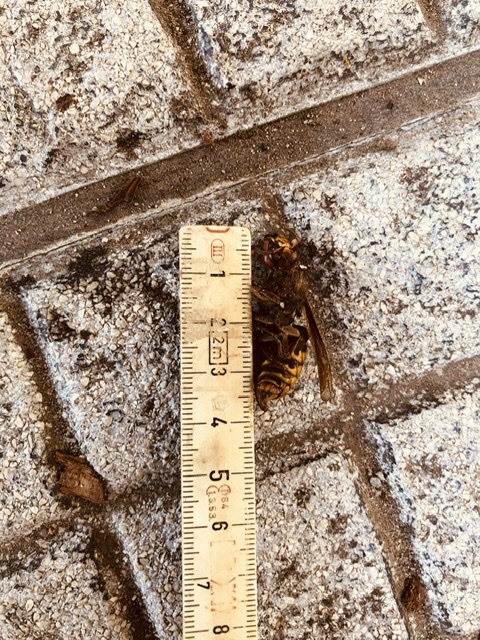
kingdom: Animalia
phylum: Arthropoda
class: Insecta
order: Hymenoptera
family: Vespidae
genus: Vespa
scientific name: Vespa crabro
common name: Hornet
